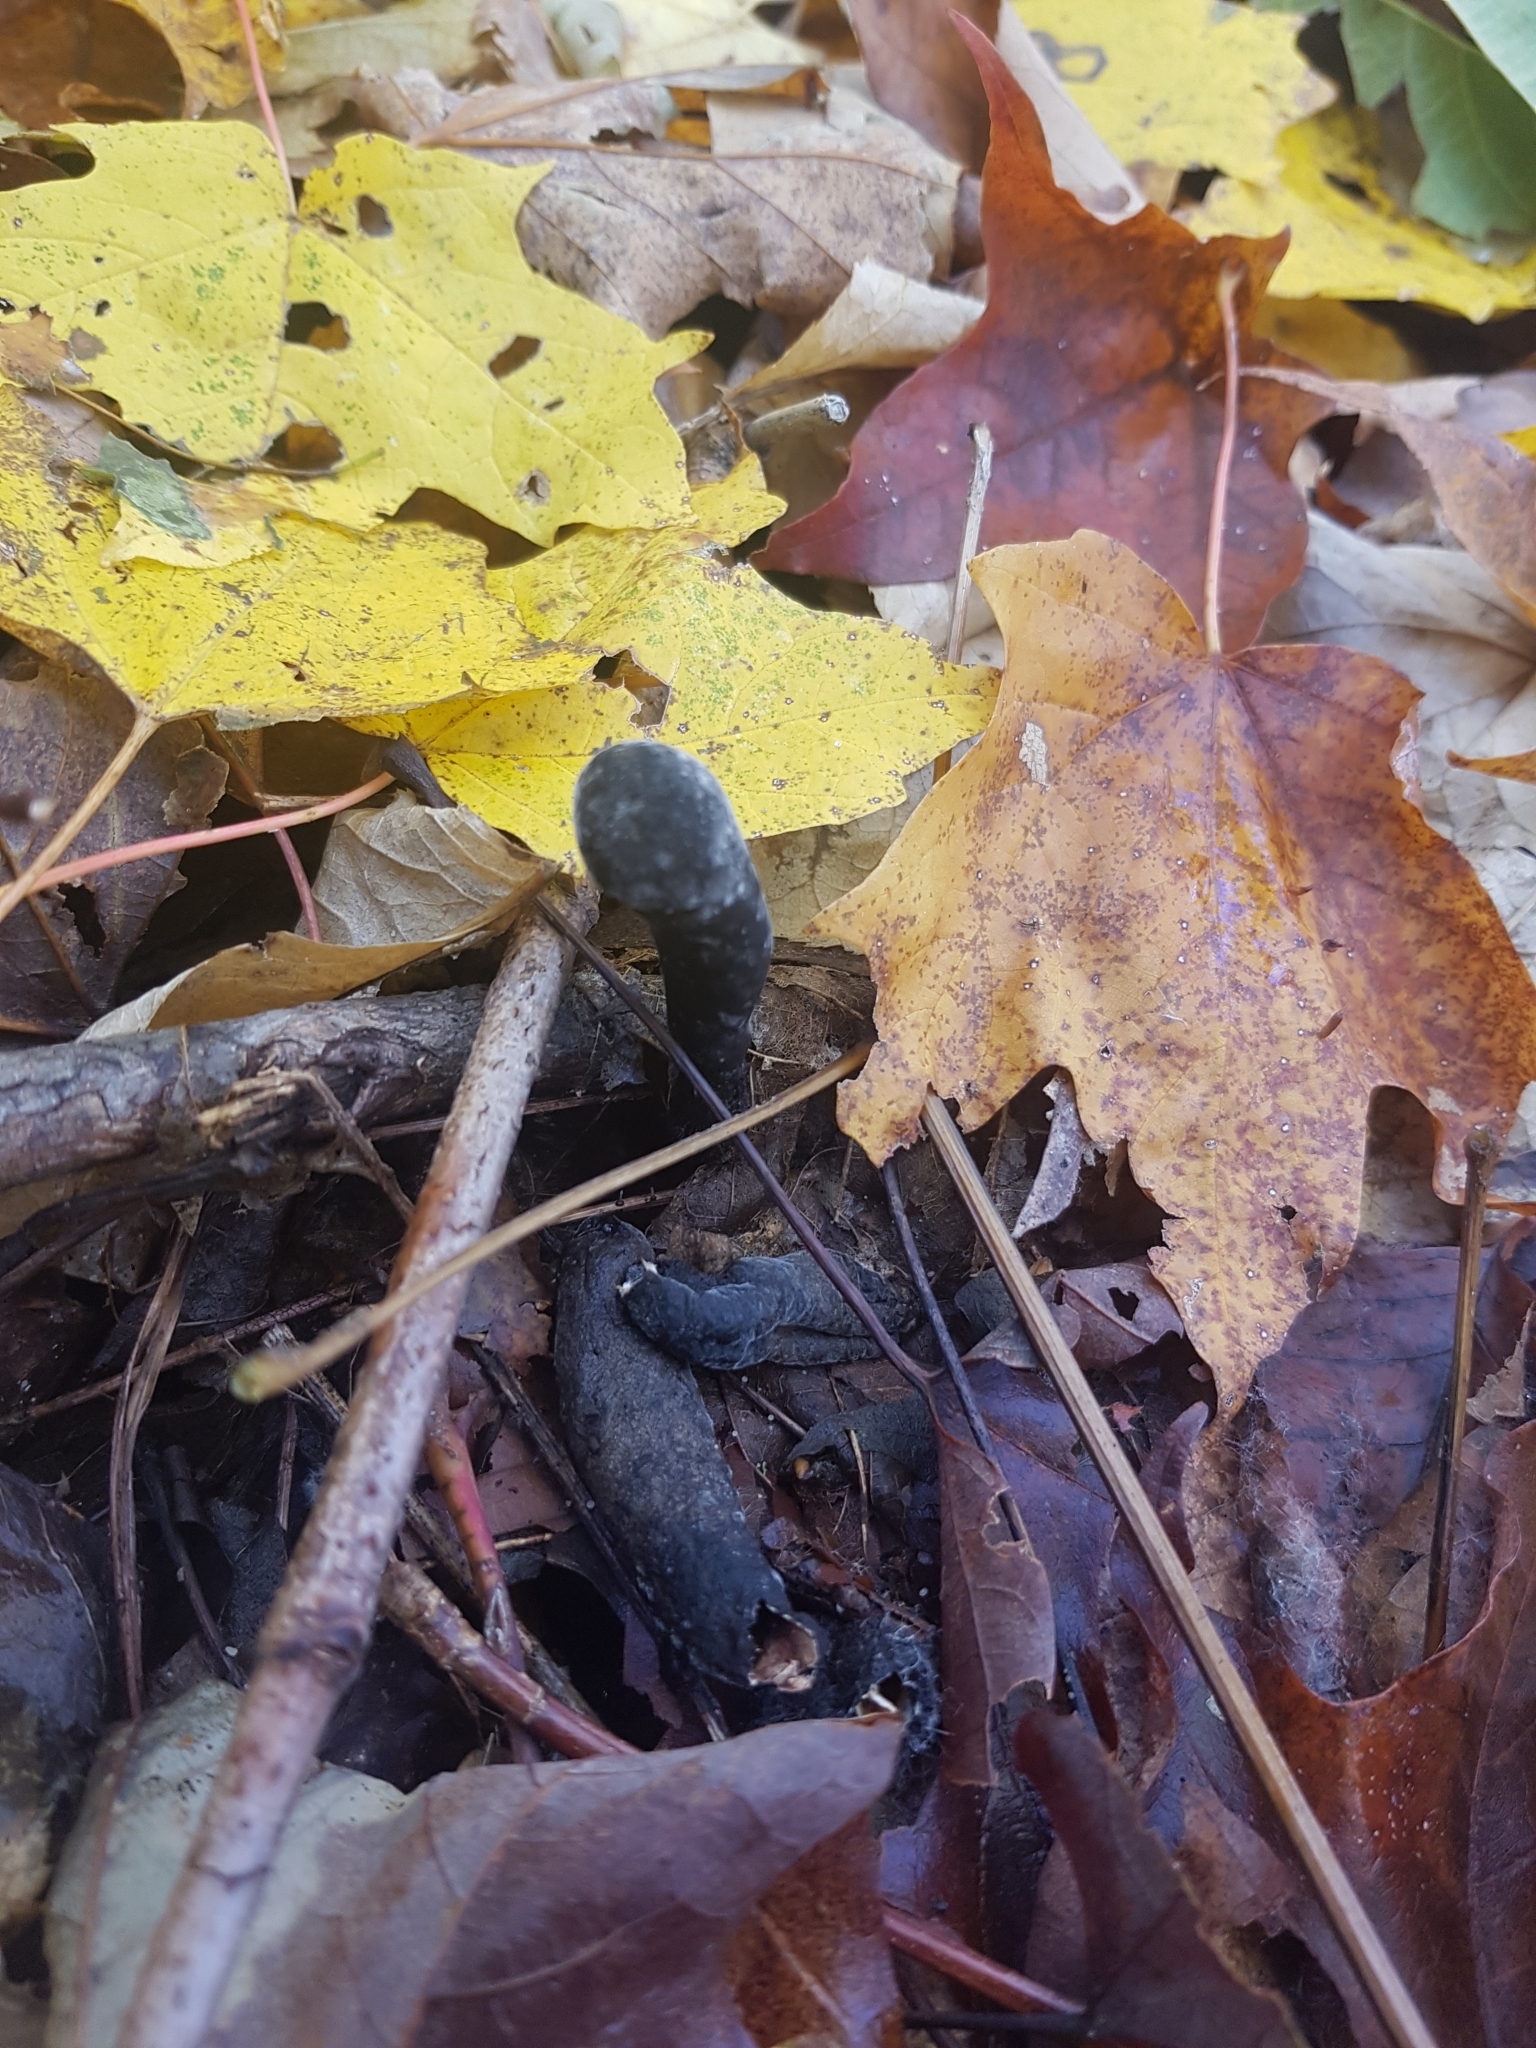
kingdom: Fungi
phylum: Ascomycota
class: Sordariomycetes
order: Xylariales
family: Xylariaceae
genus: Xylaria
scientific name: Xylaria polymorpha
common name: Dead man's fingers
